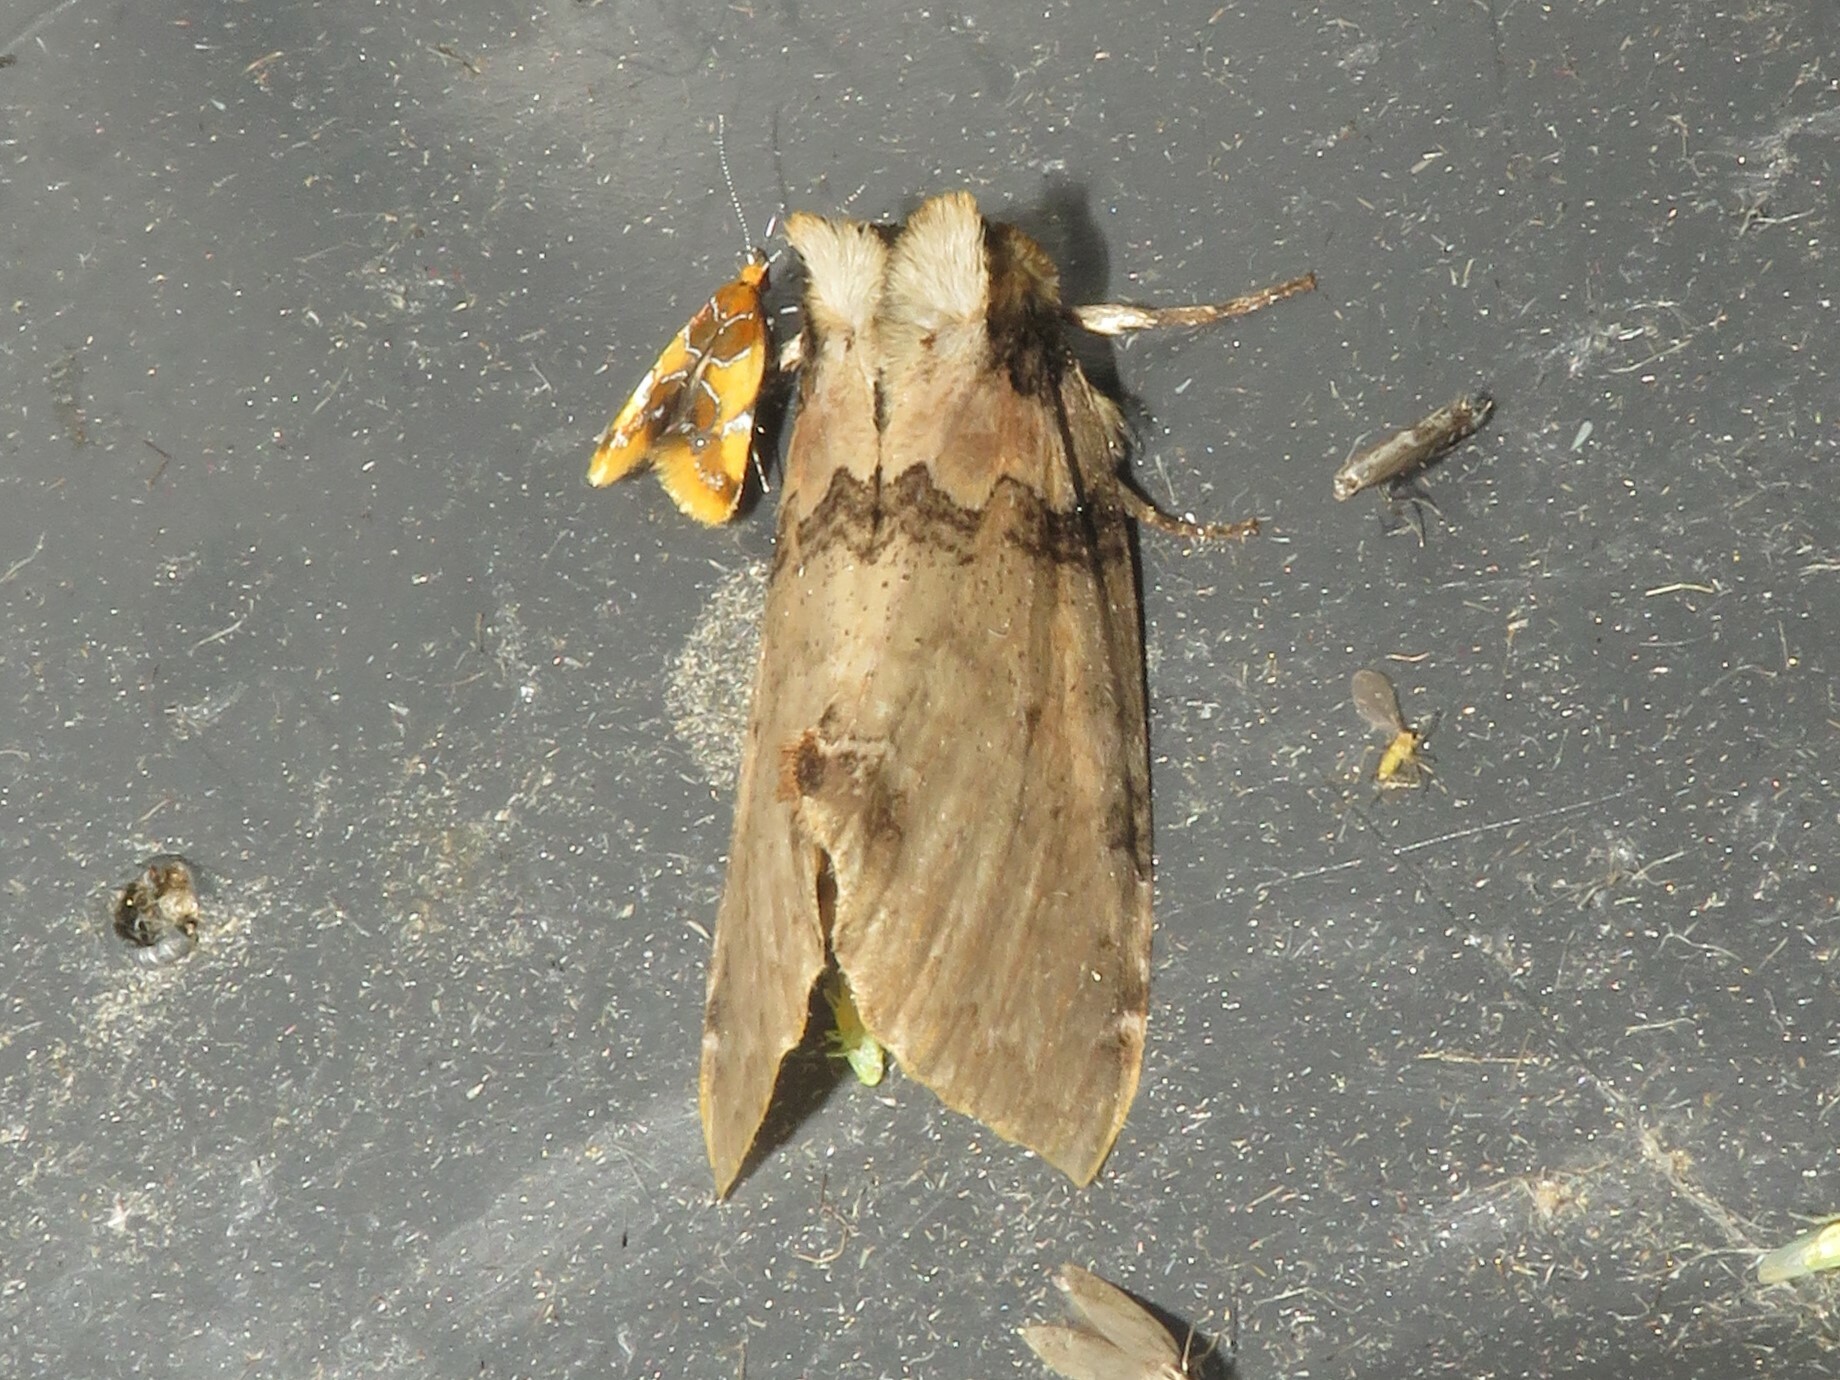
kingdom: Animalia
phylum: Arthropoda
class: Insecta
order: Lepidoptera
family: Drepanidae
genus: Pseudothyatira
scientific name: Pseudothyatira cymatophoroides
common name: Tufted thyatirid moth
